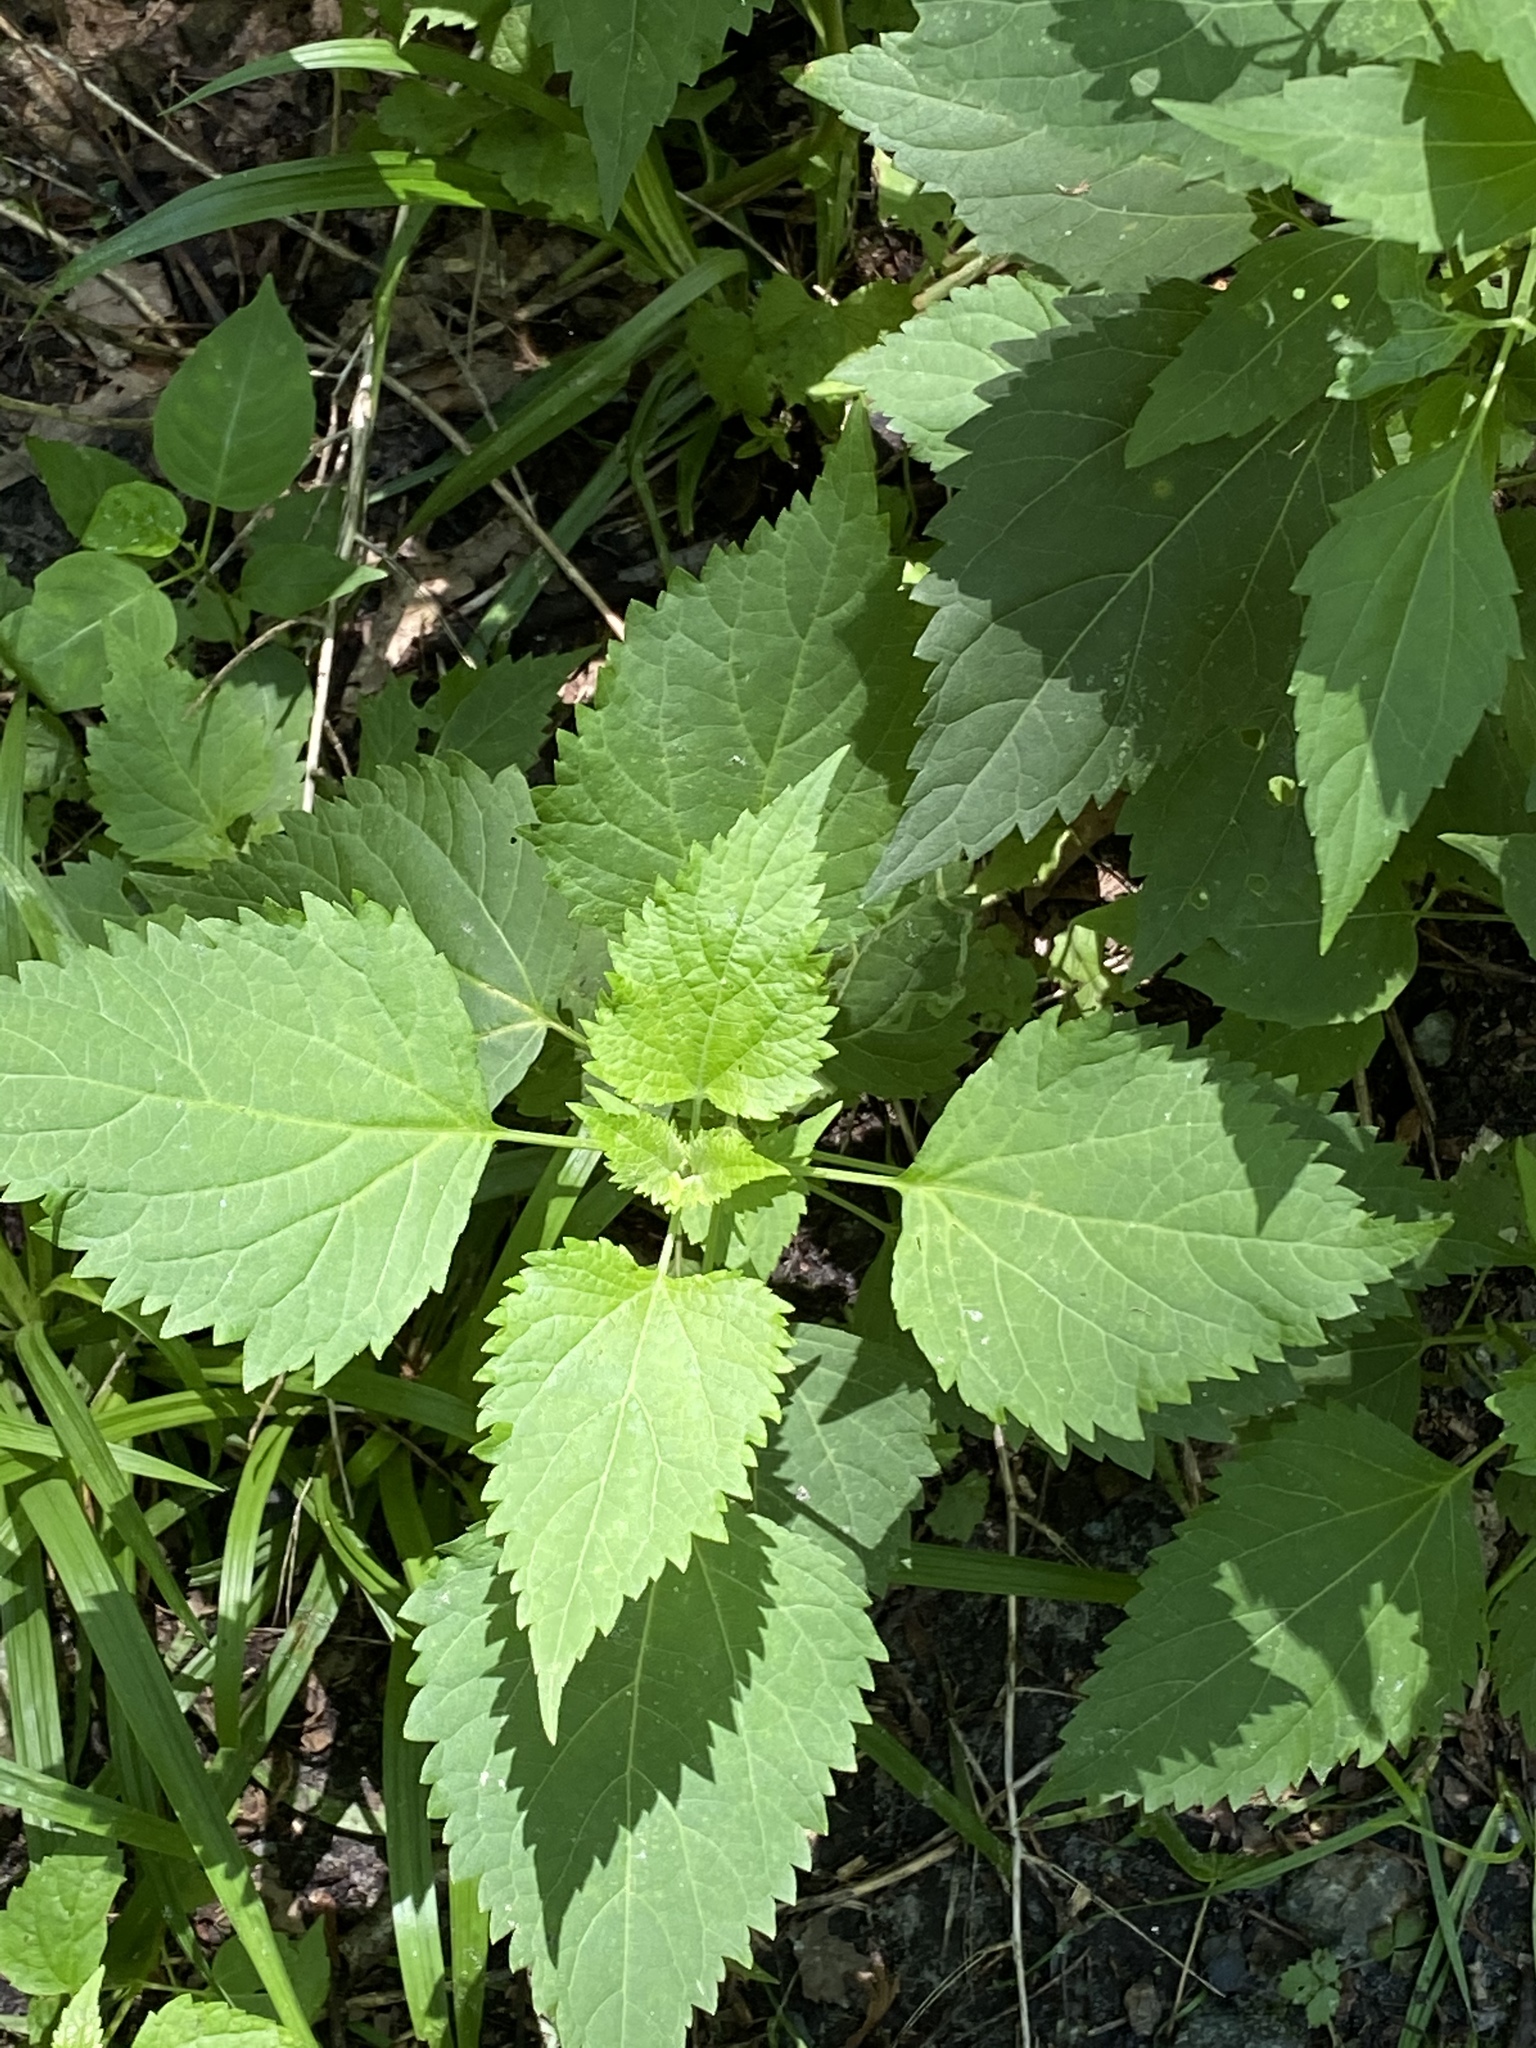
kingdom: Plantae
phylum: Tracheophyta
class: Magnoliopsida
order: Asterales
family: Asteraceae
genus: Ageratina
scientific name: Ageratina altissima
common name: White snakeroot
